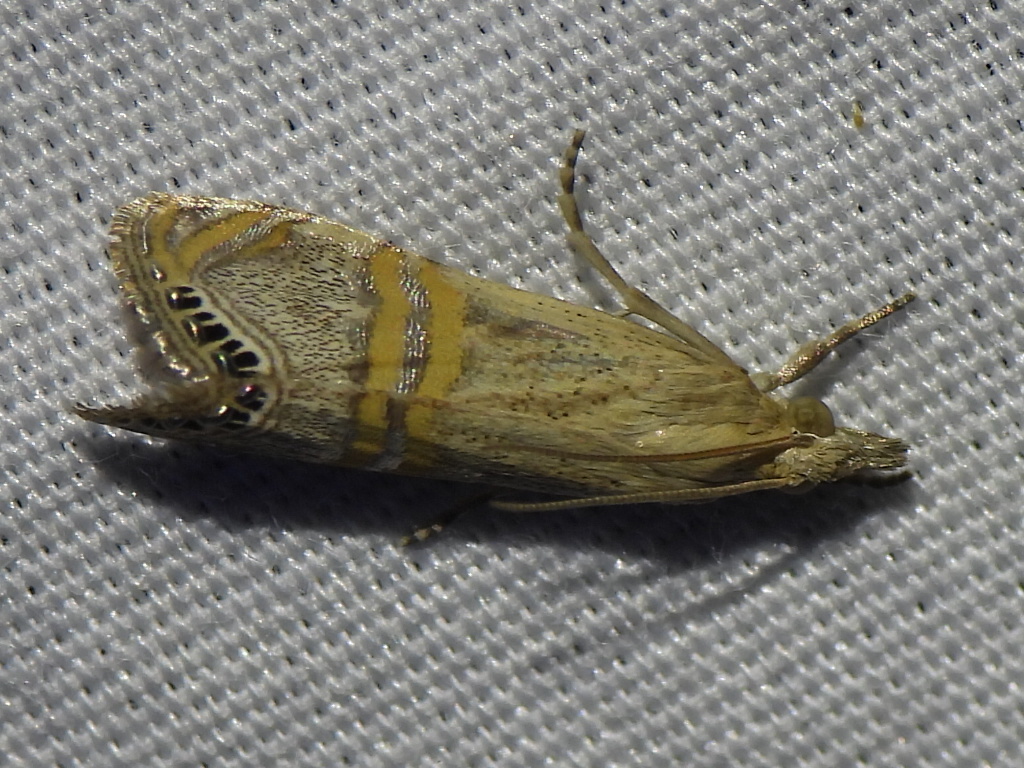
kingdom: Animalia
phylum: Arthropoda
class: Insecta
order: Lepidoptera
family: Crambidae
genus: Euchromius
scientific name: Euchromius ocellea
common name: Necklace veneer moth
